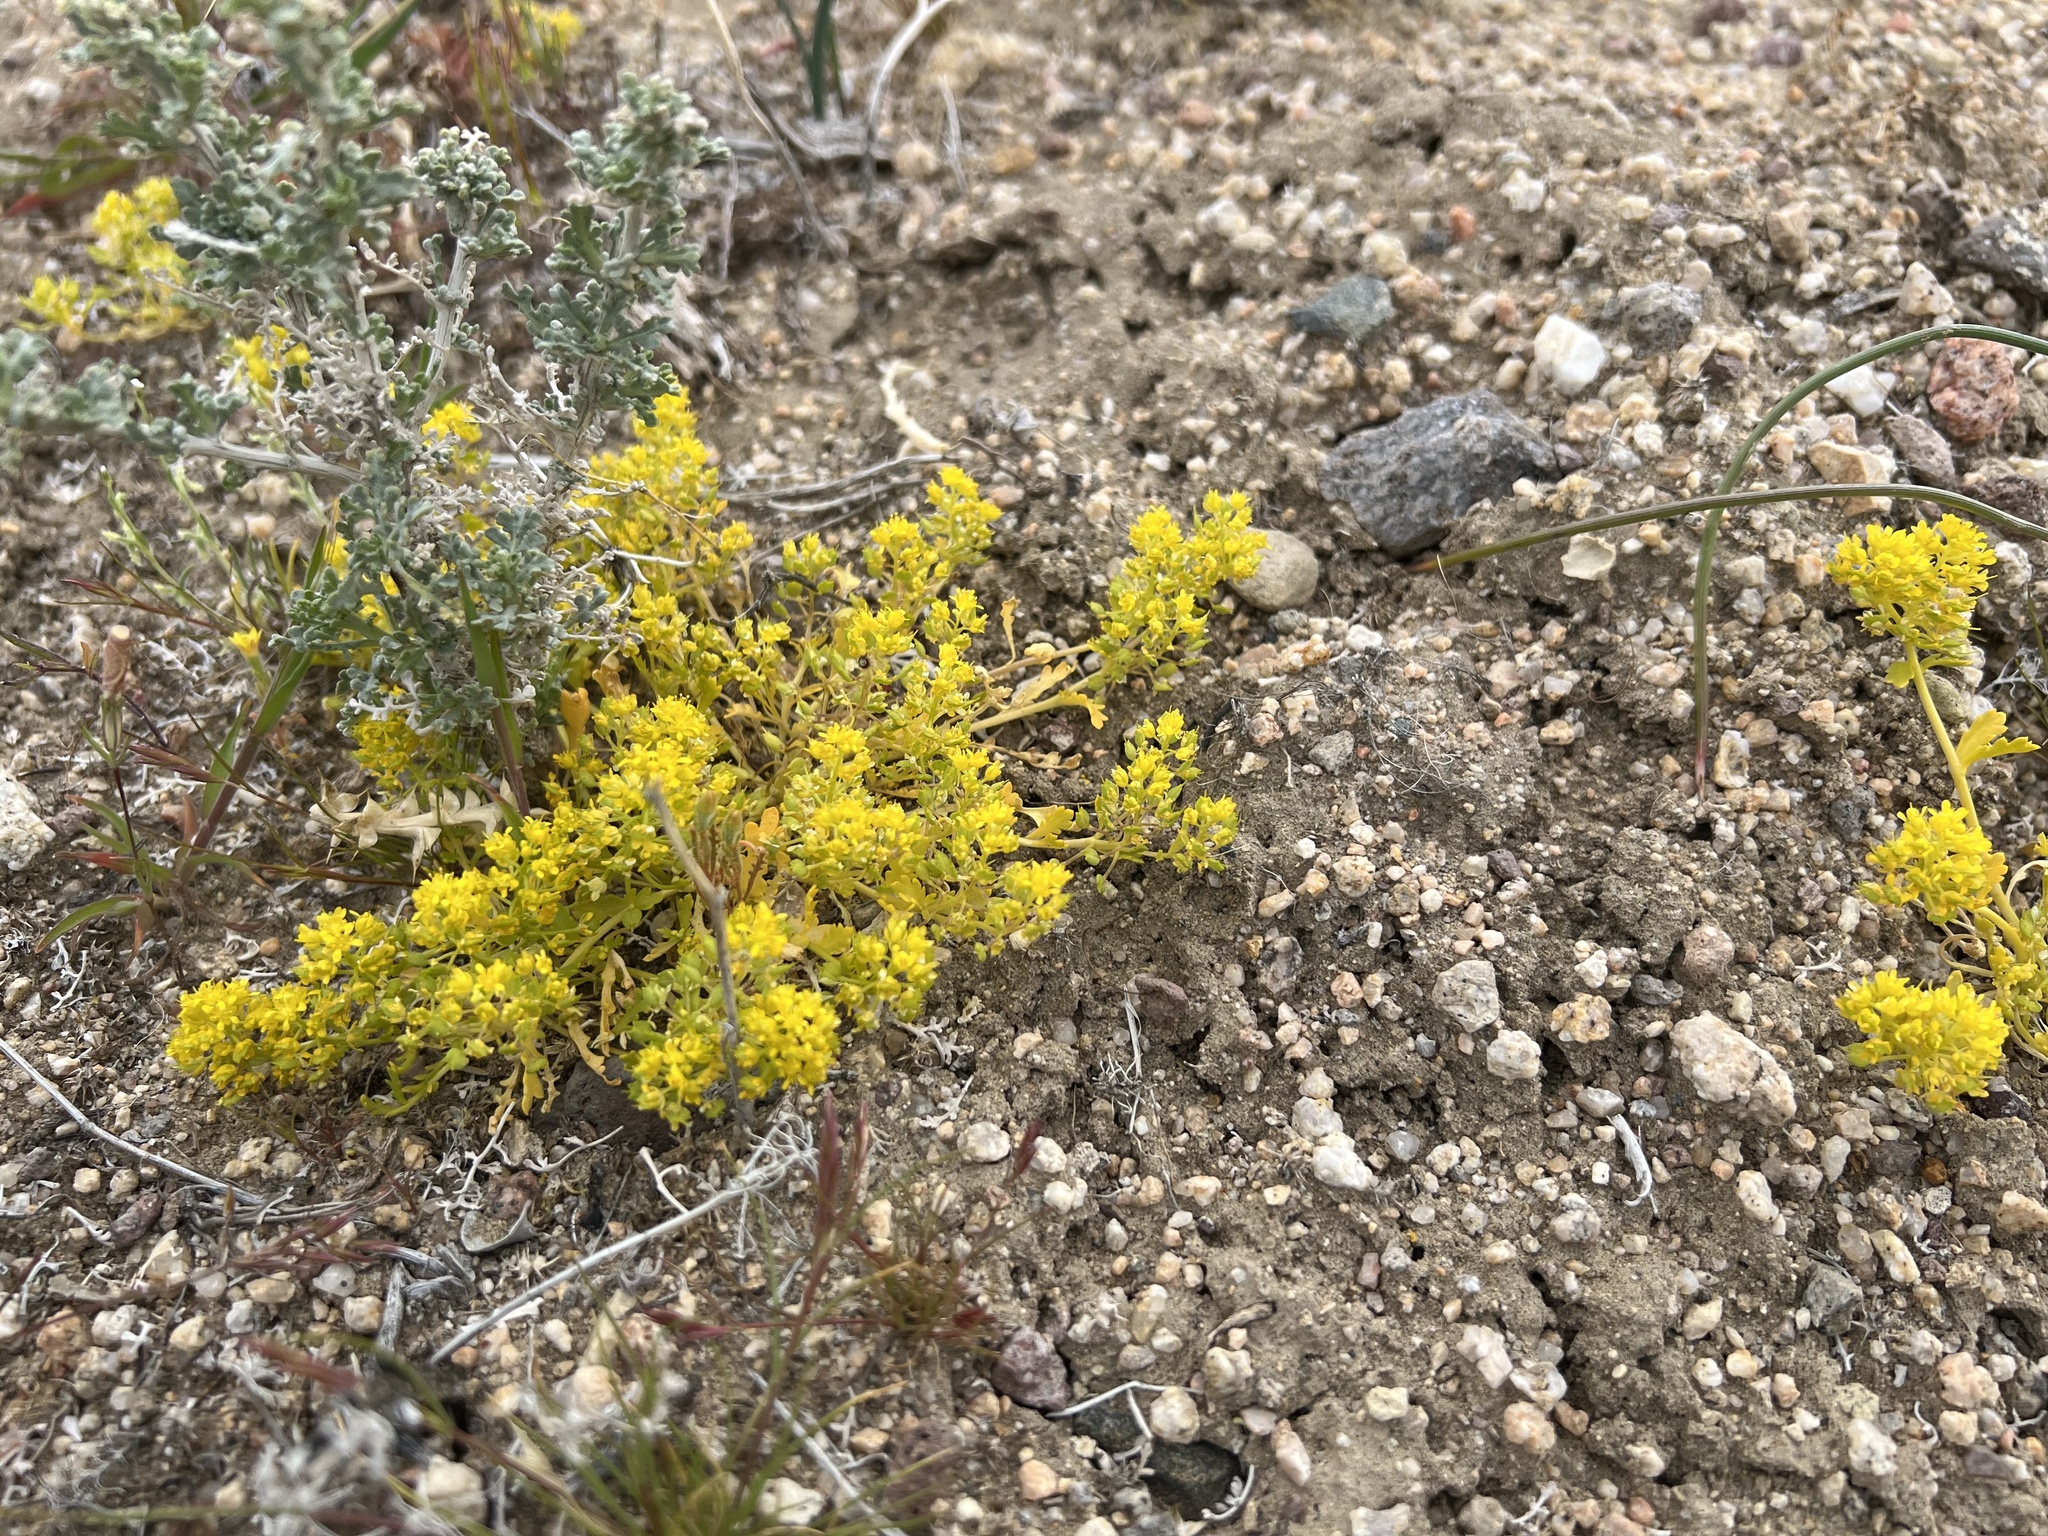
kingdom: Plantae
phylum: Tracheophyta
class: Magnoliopsida
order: Brassicales
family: Brassicaceae
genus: Lepidium
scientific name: Lepidium flavum
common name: Yellow pepperwort
